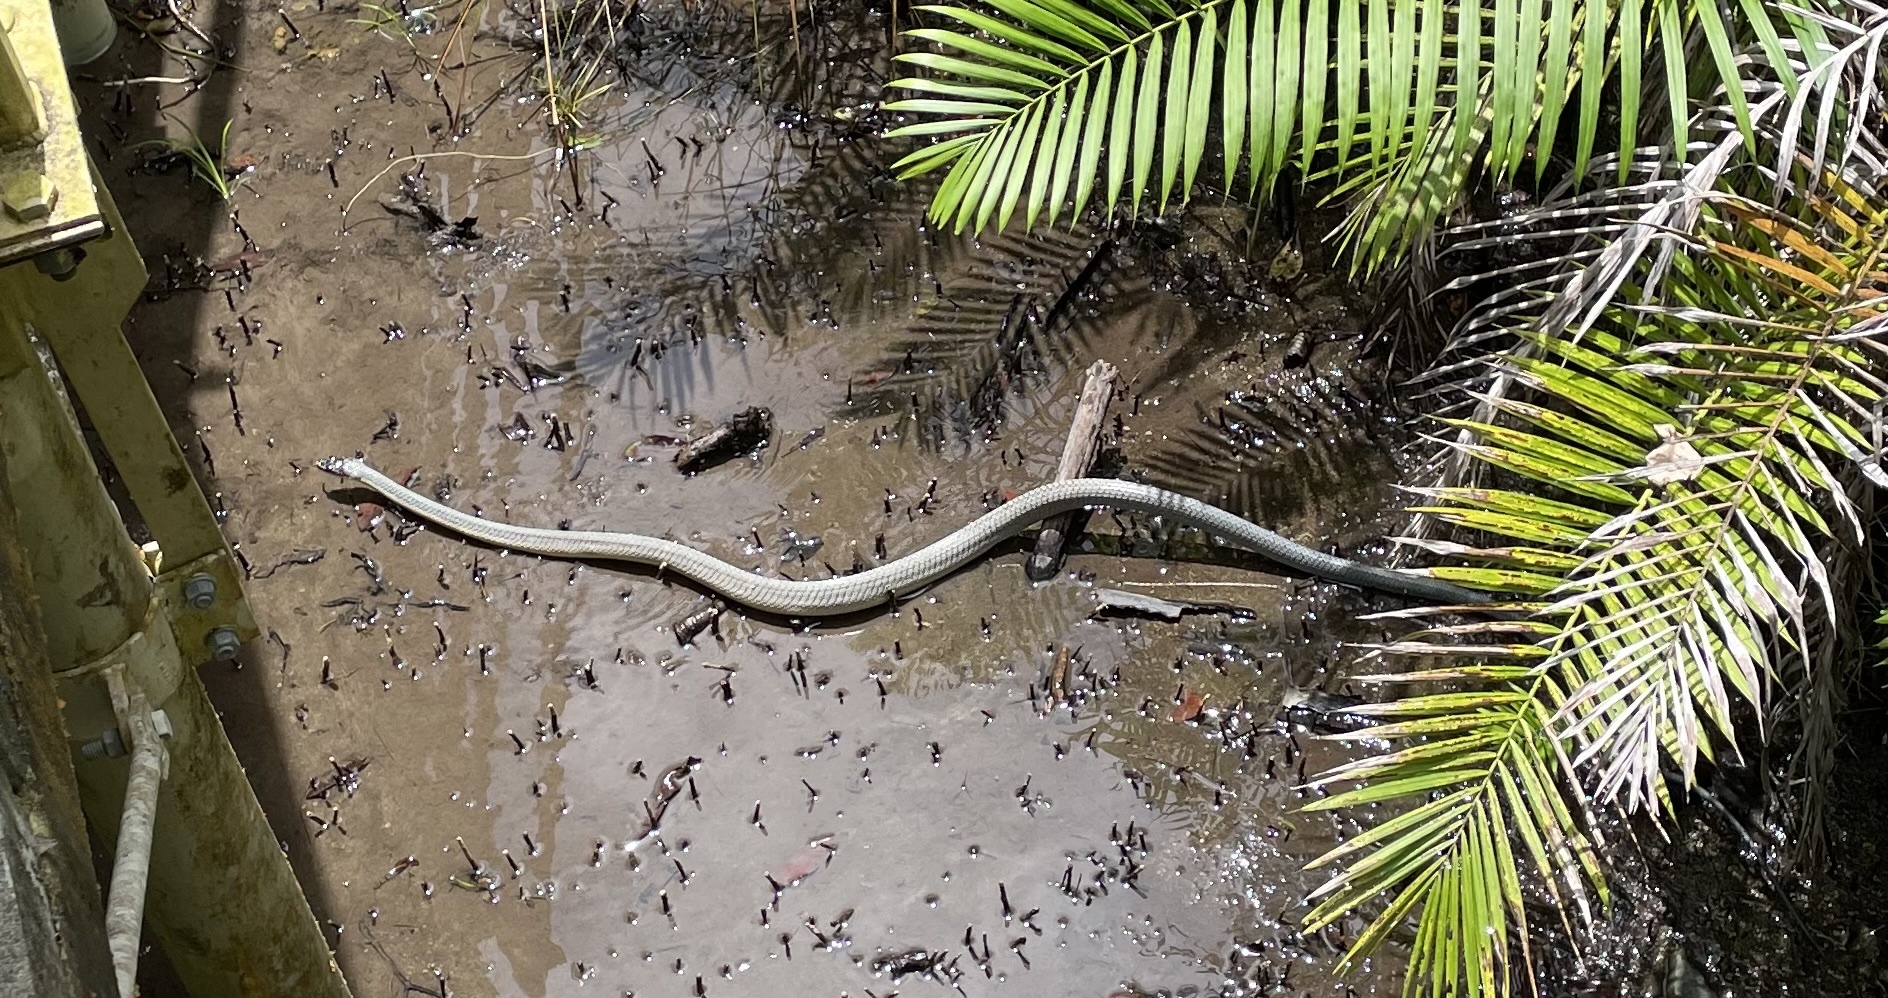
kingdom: Animalia
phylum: Chordata
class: Squamata
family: Colubridae
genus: Phrynonax
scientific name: Phrynonax poecilonotus
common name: Puffing snake
